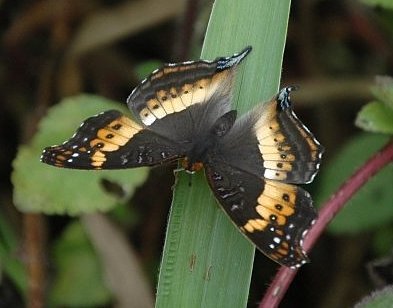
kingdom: Animalia
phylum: Arthropoda
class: Insecta
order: Lepidoptera
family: Nymphalidae
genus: Precis
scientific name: Precis andremiaja
